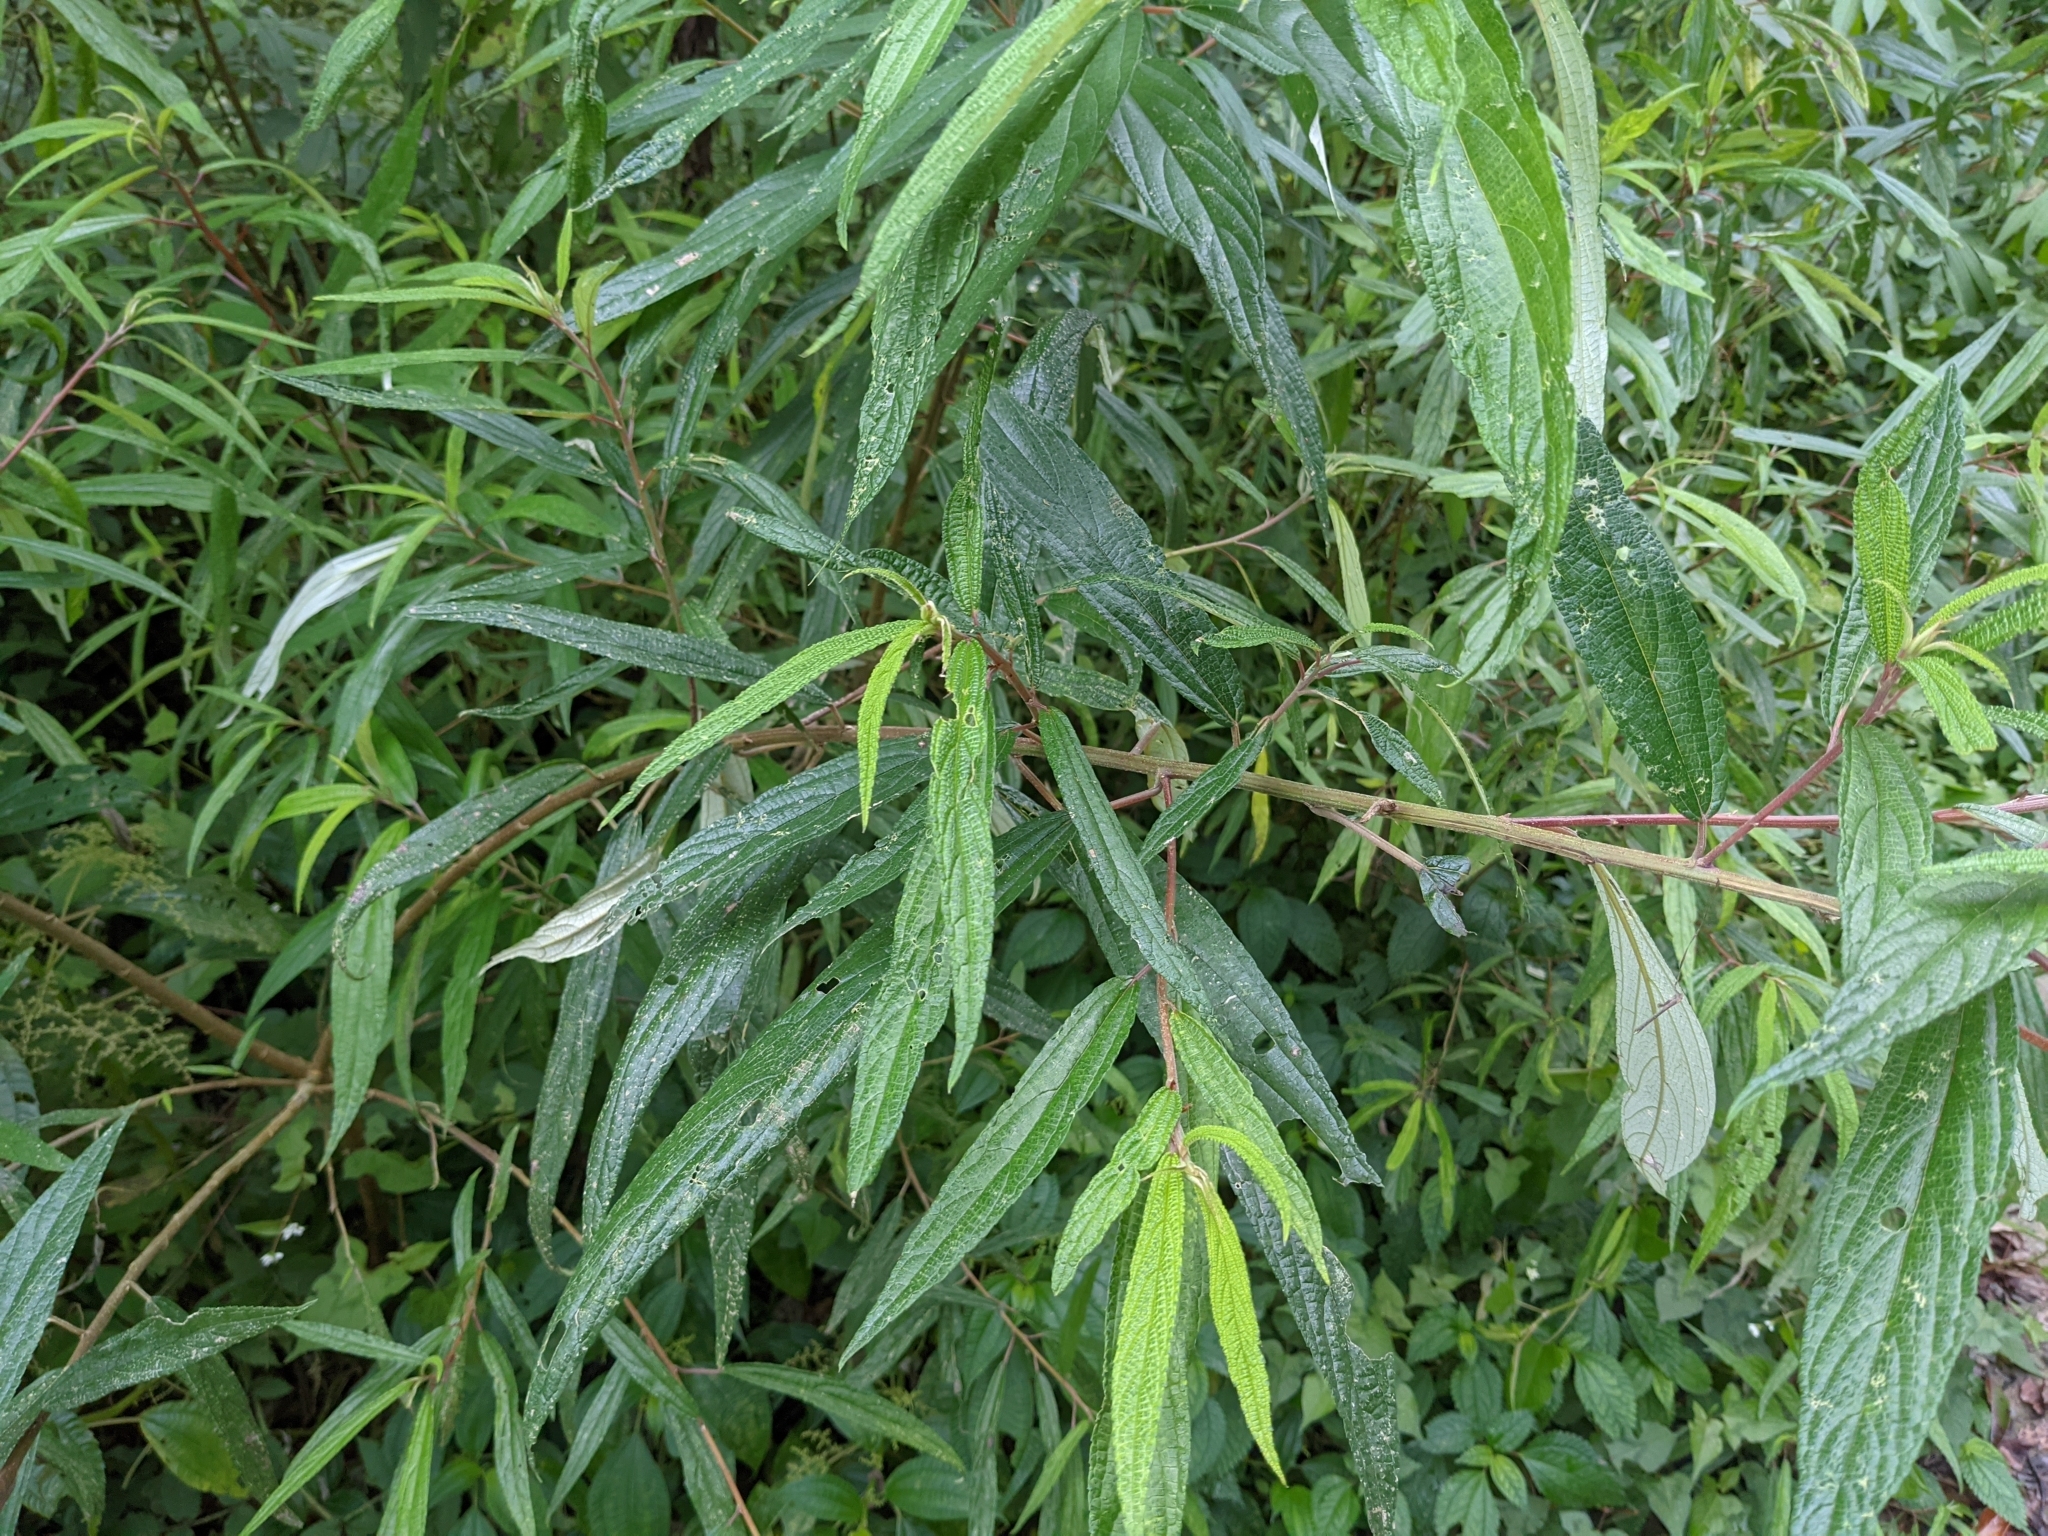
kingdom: Plantae
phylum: Tracheophyta
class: Magnoliopsida
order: Rosales
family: Urticaceae
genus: Debregeasia
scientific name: Debregeasia orientalis
